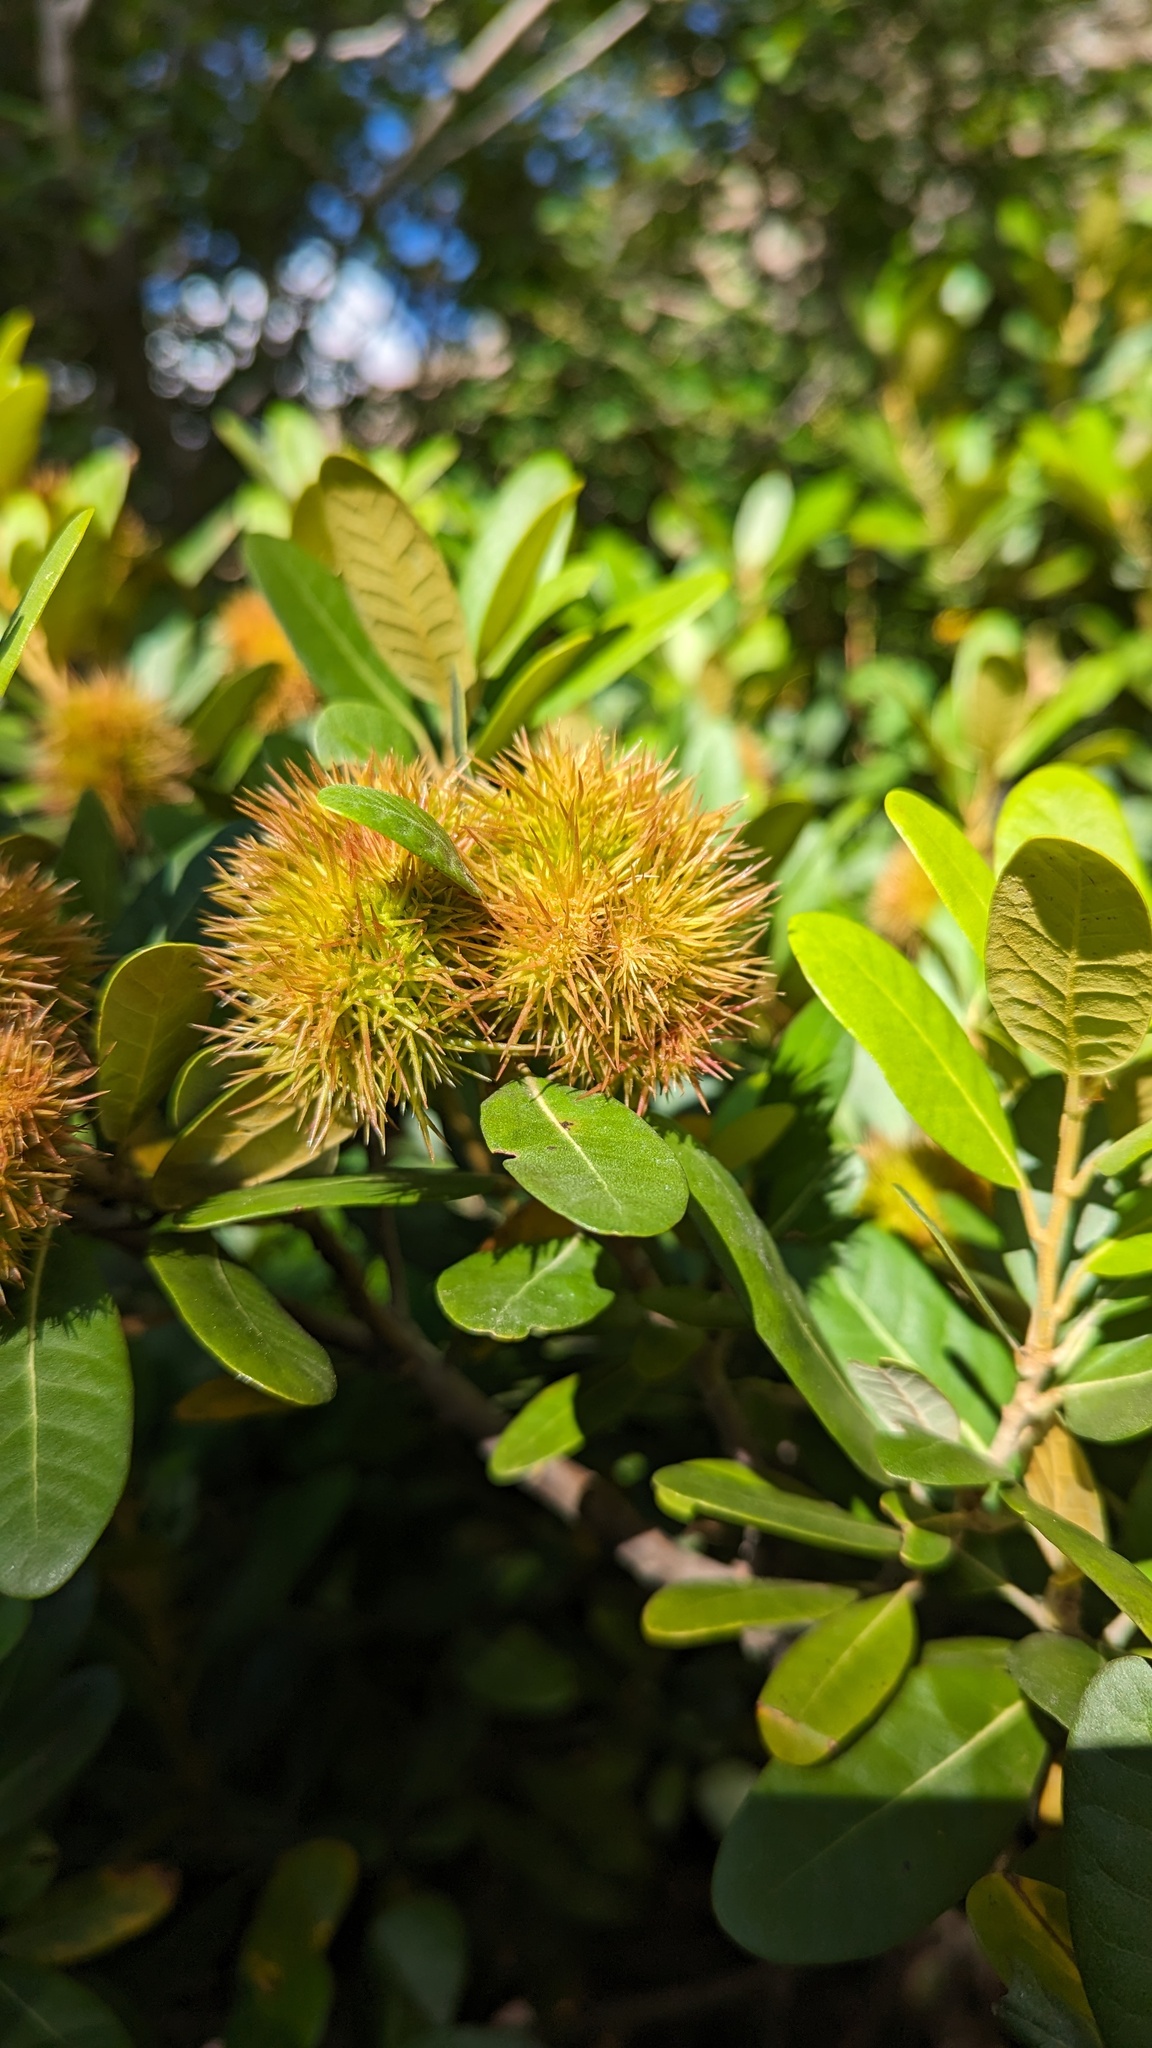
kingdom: Plantae
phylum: Tracheophyta
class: Magnoliopsida
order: Fagales
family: Fagaceae
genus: Chrysolepis
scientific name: Chrysolepis sempervirens
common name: Bush chinquapin
